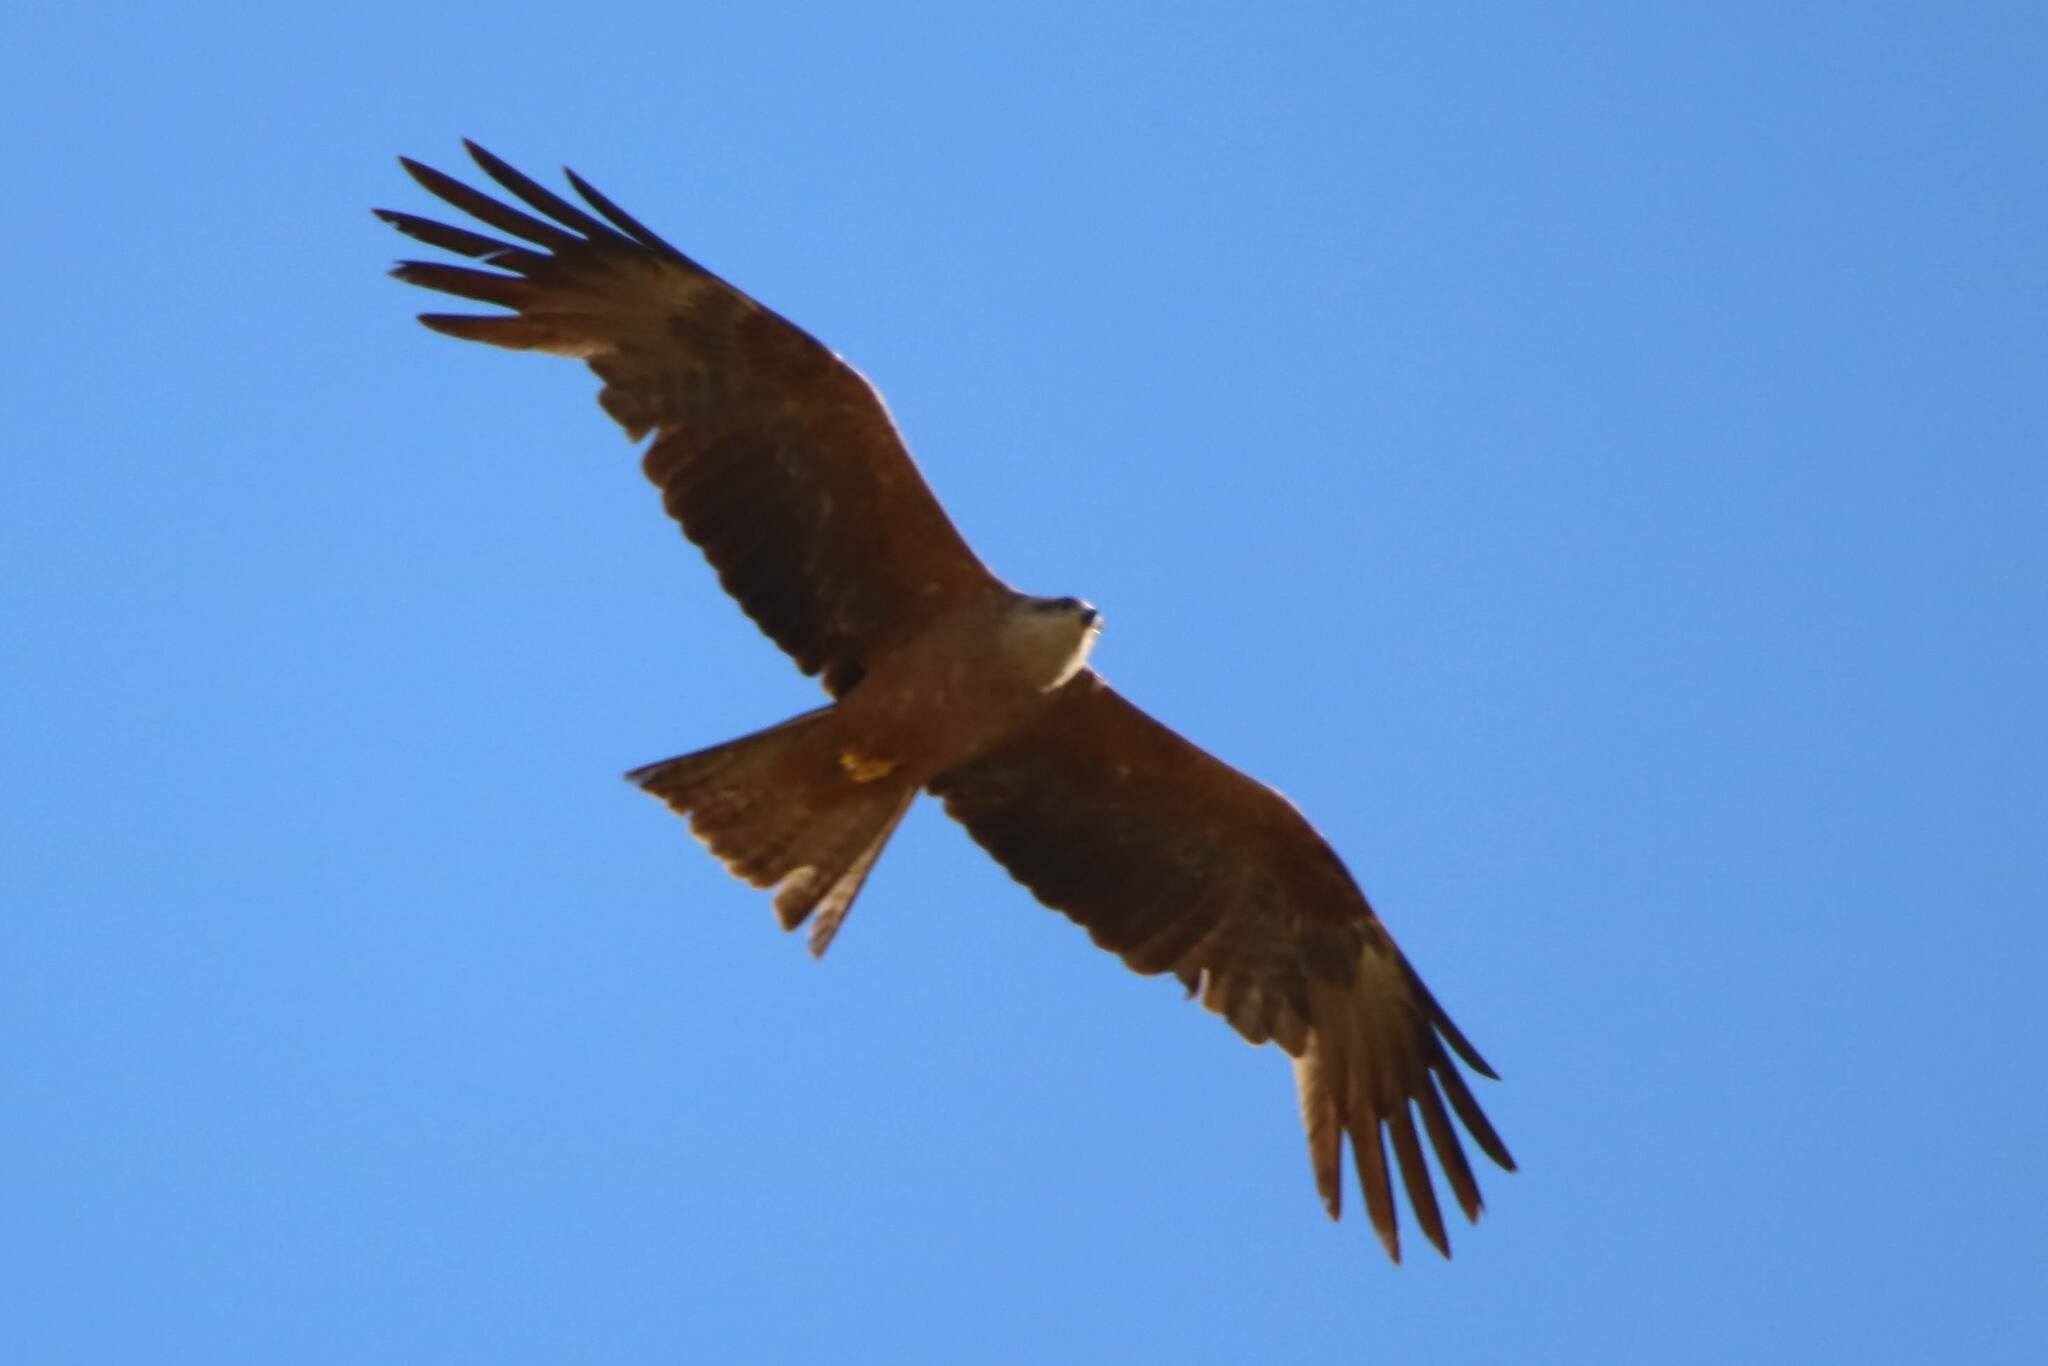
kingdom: Animalia
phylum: Chordata
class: Aves
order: Accipitriformes
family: Accipitridae
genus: Milvus
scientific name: Milvus migrans
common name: Black kite
